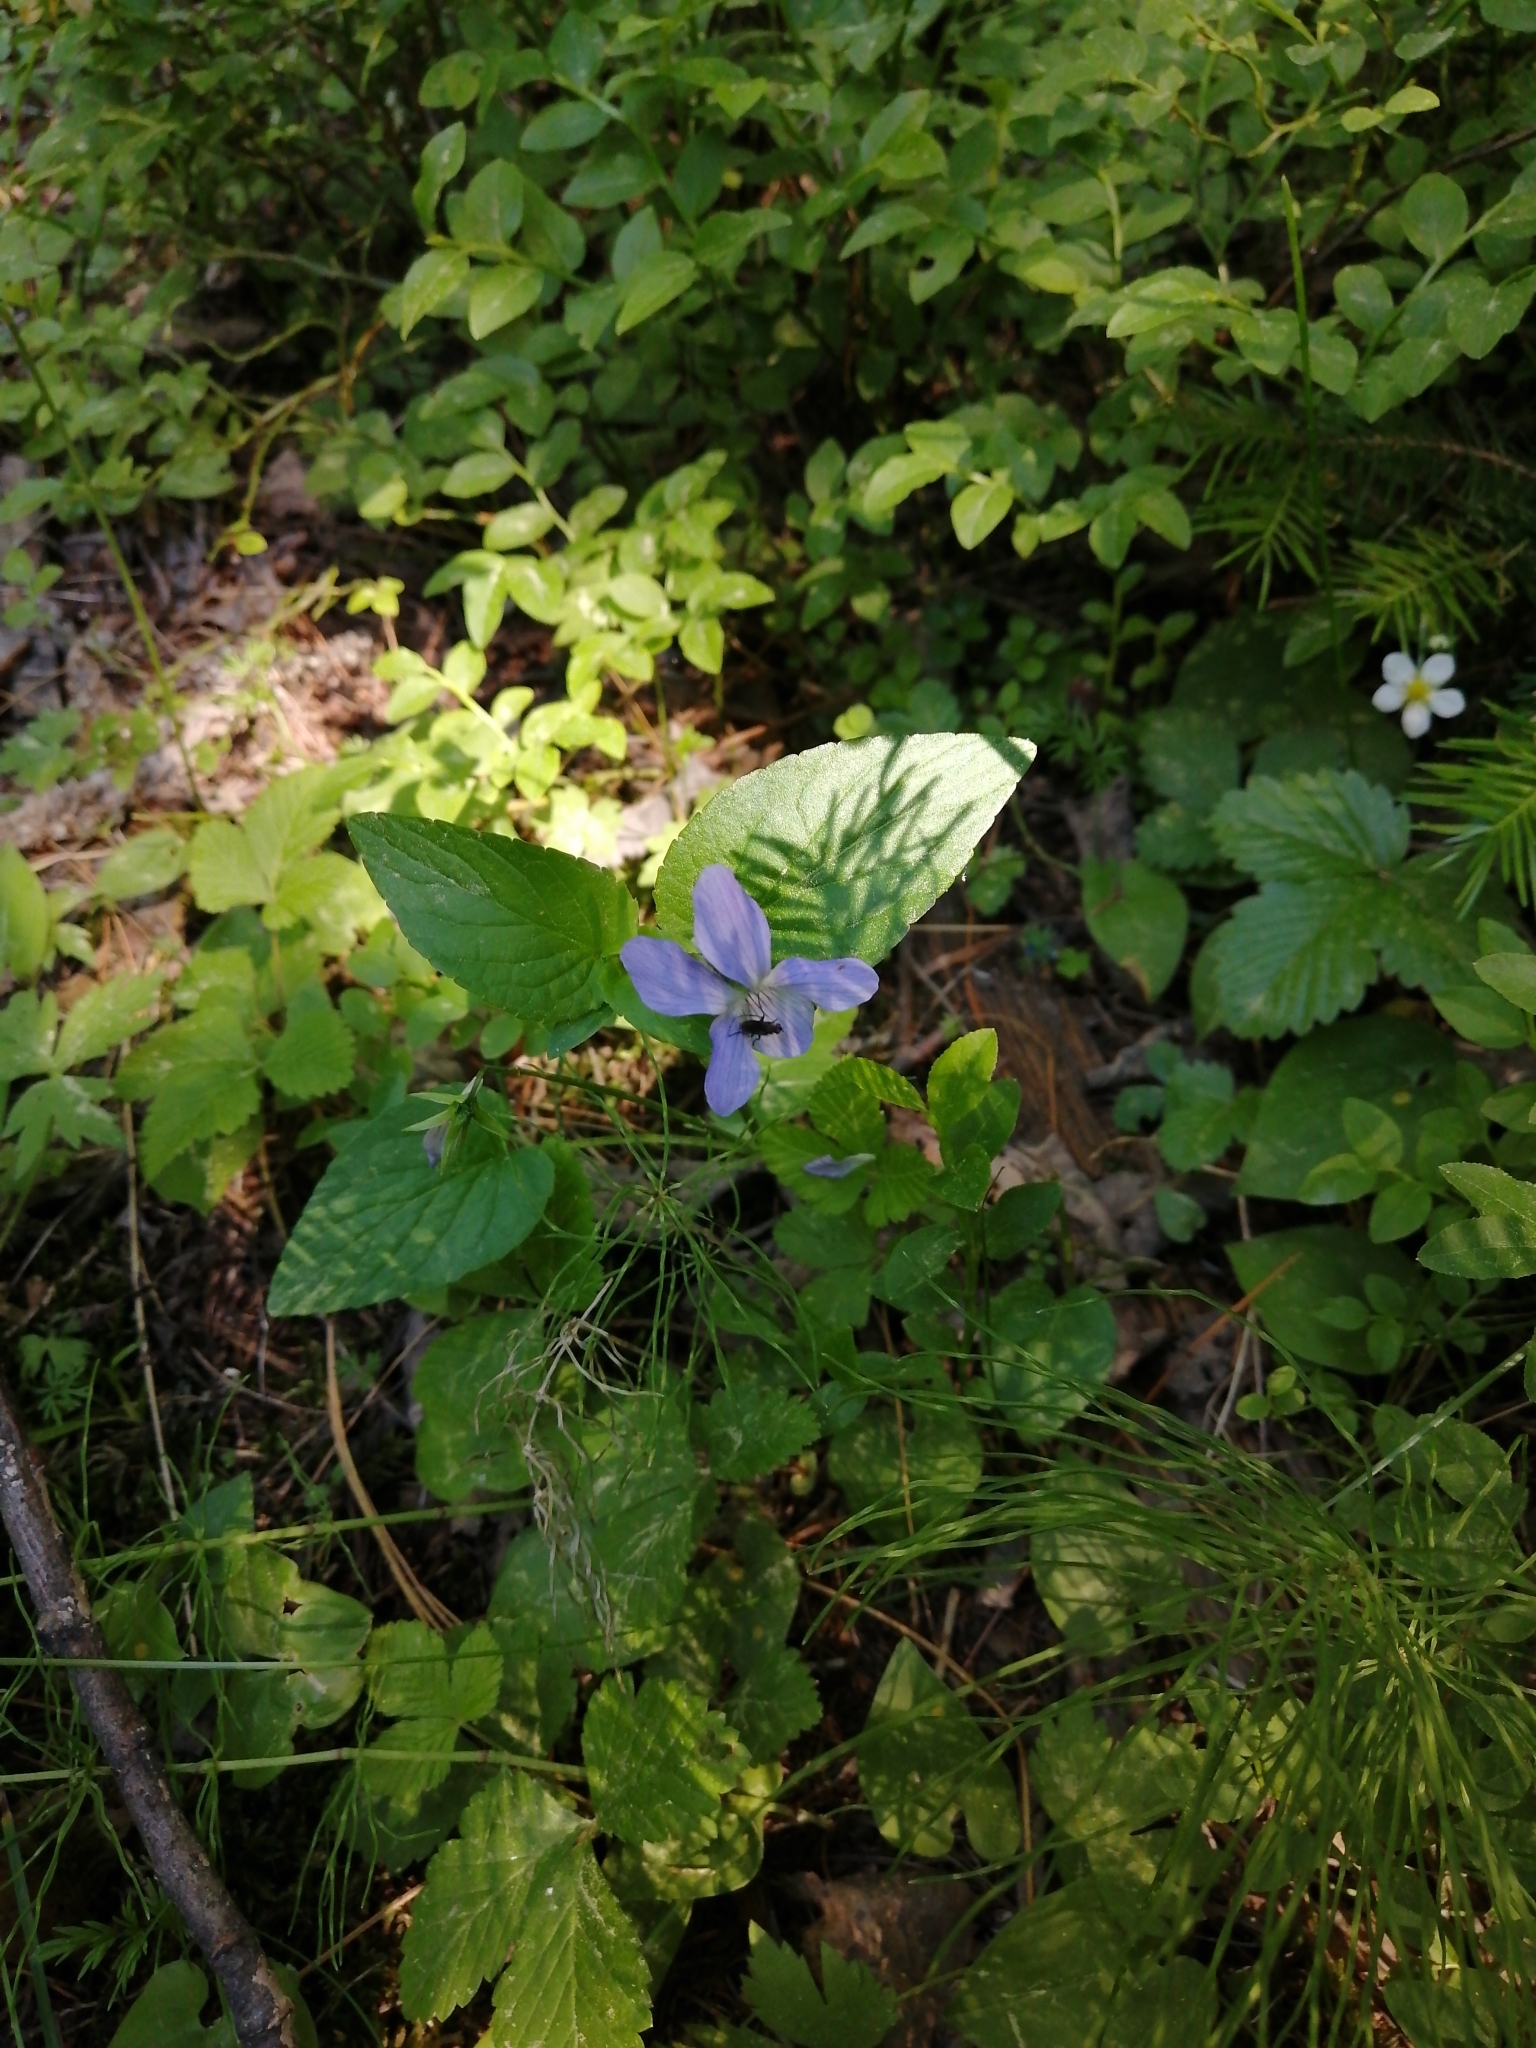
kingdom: Plantae
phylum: Tracheophyta
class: Magnoliopsida
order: Malpighiales
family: Violaceae
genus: Viola
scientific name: Viola
